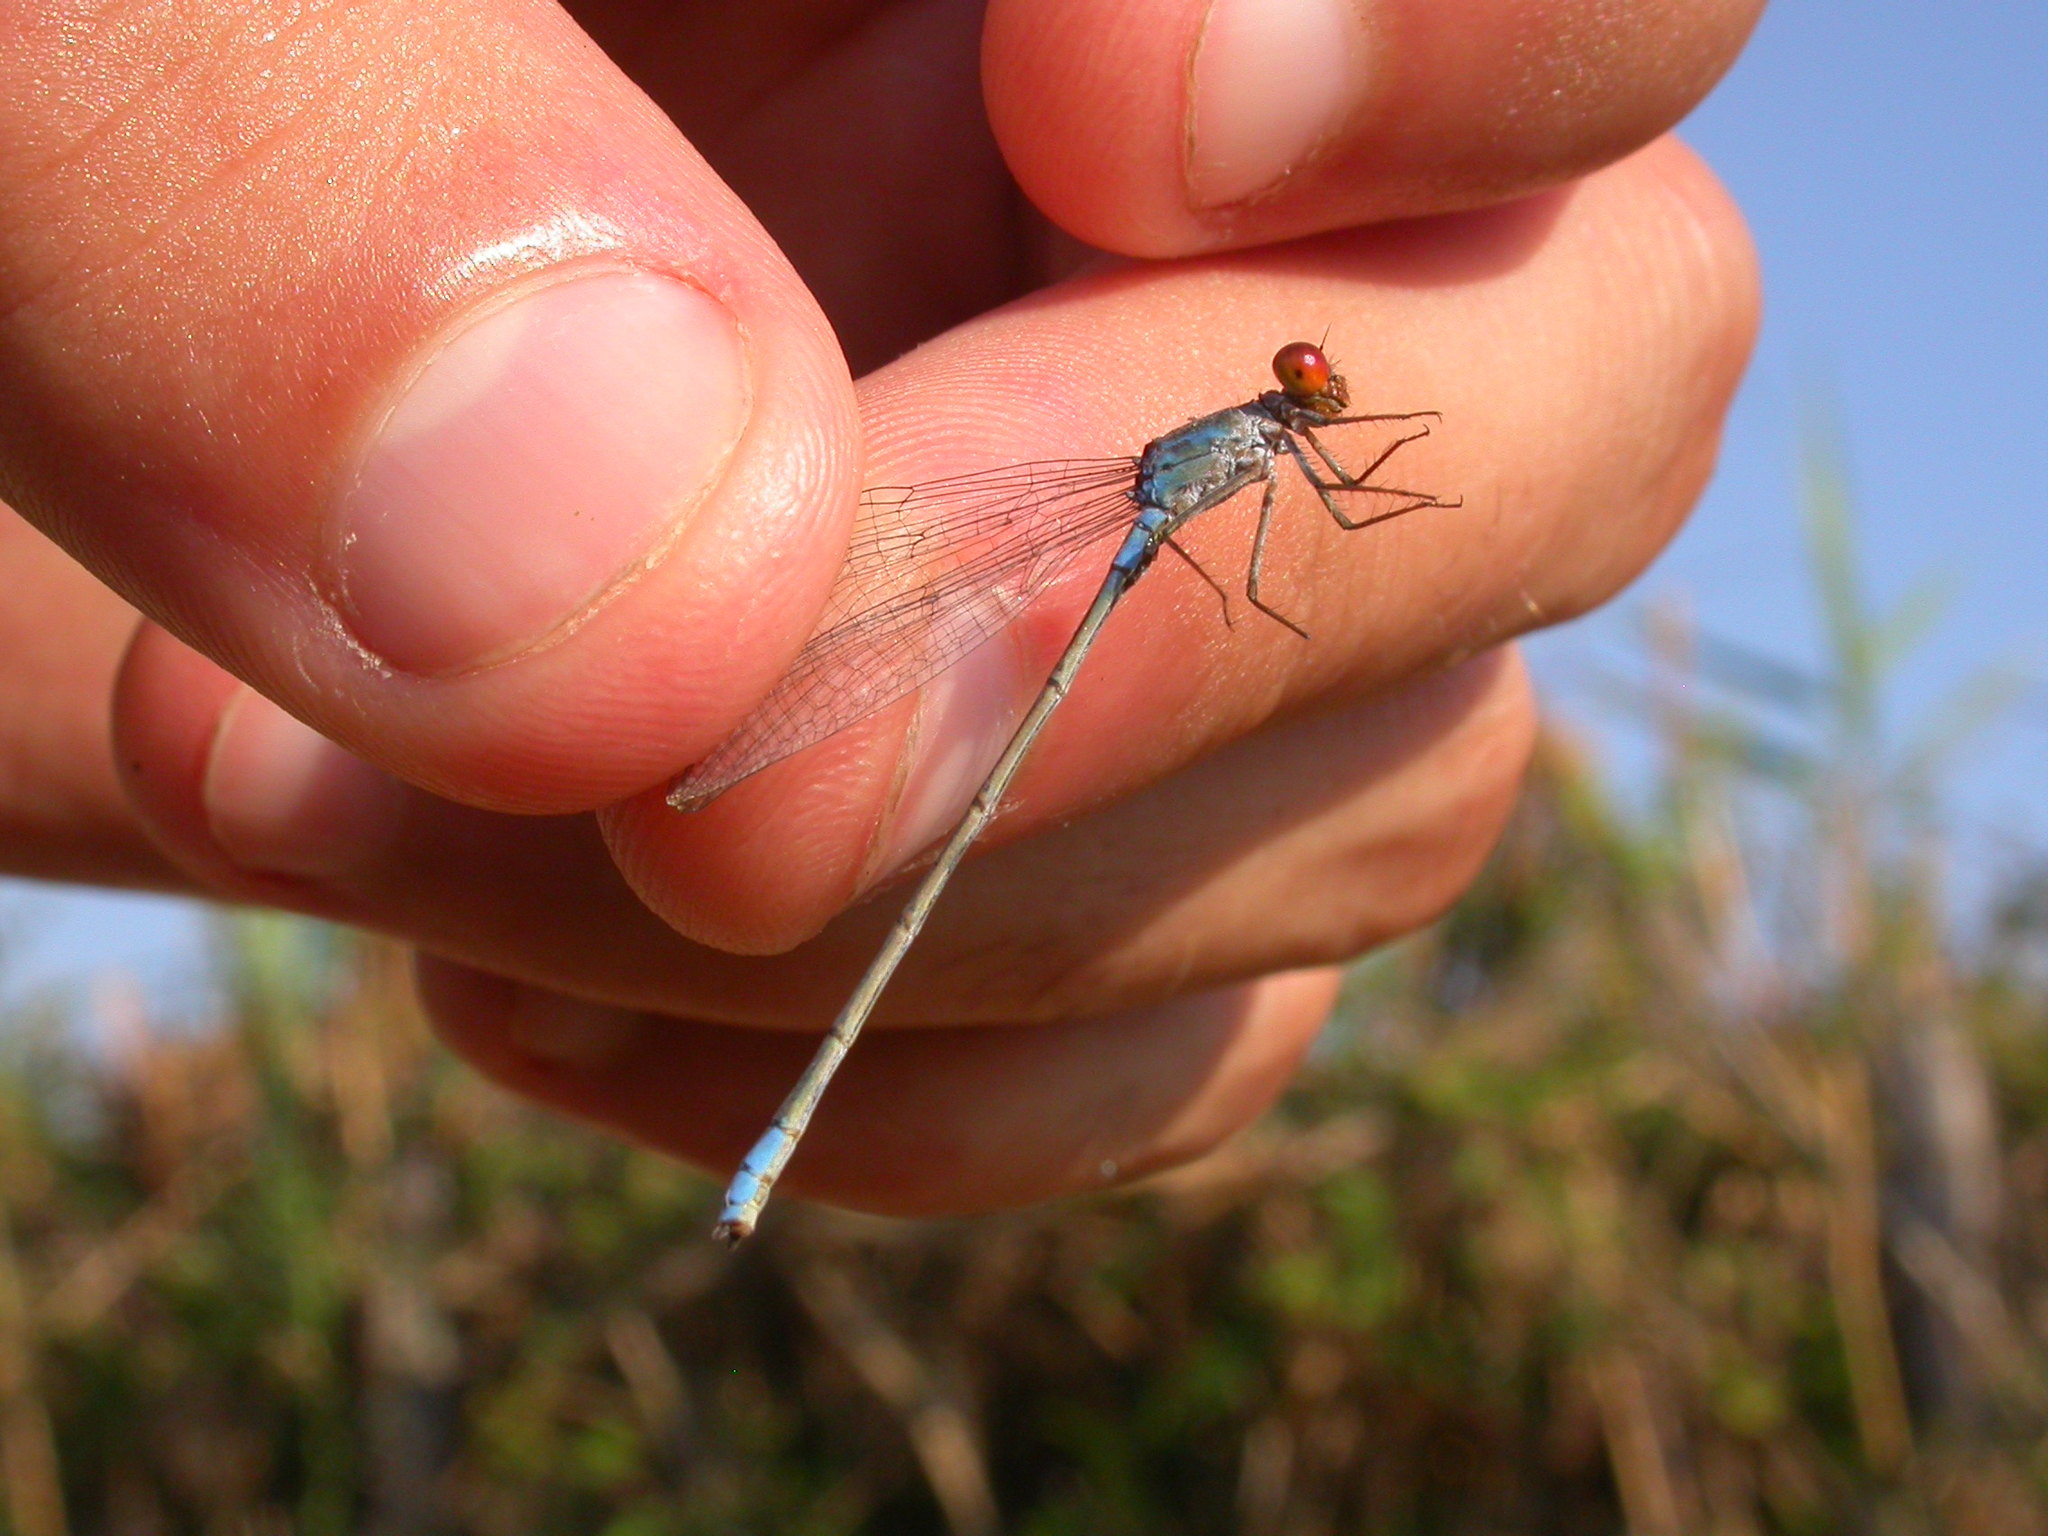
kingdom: Animalia
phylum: Arthropoda
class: Insecta
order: Odonata
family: Coenagrionidae
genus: Erythromma
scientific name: Erythromma viridulum
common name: Small red-eyed damselfly
